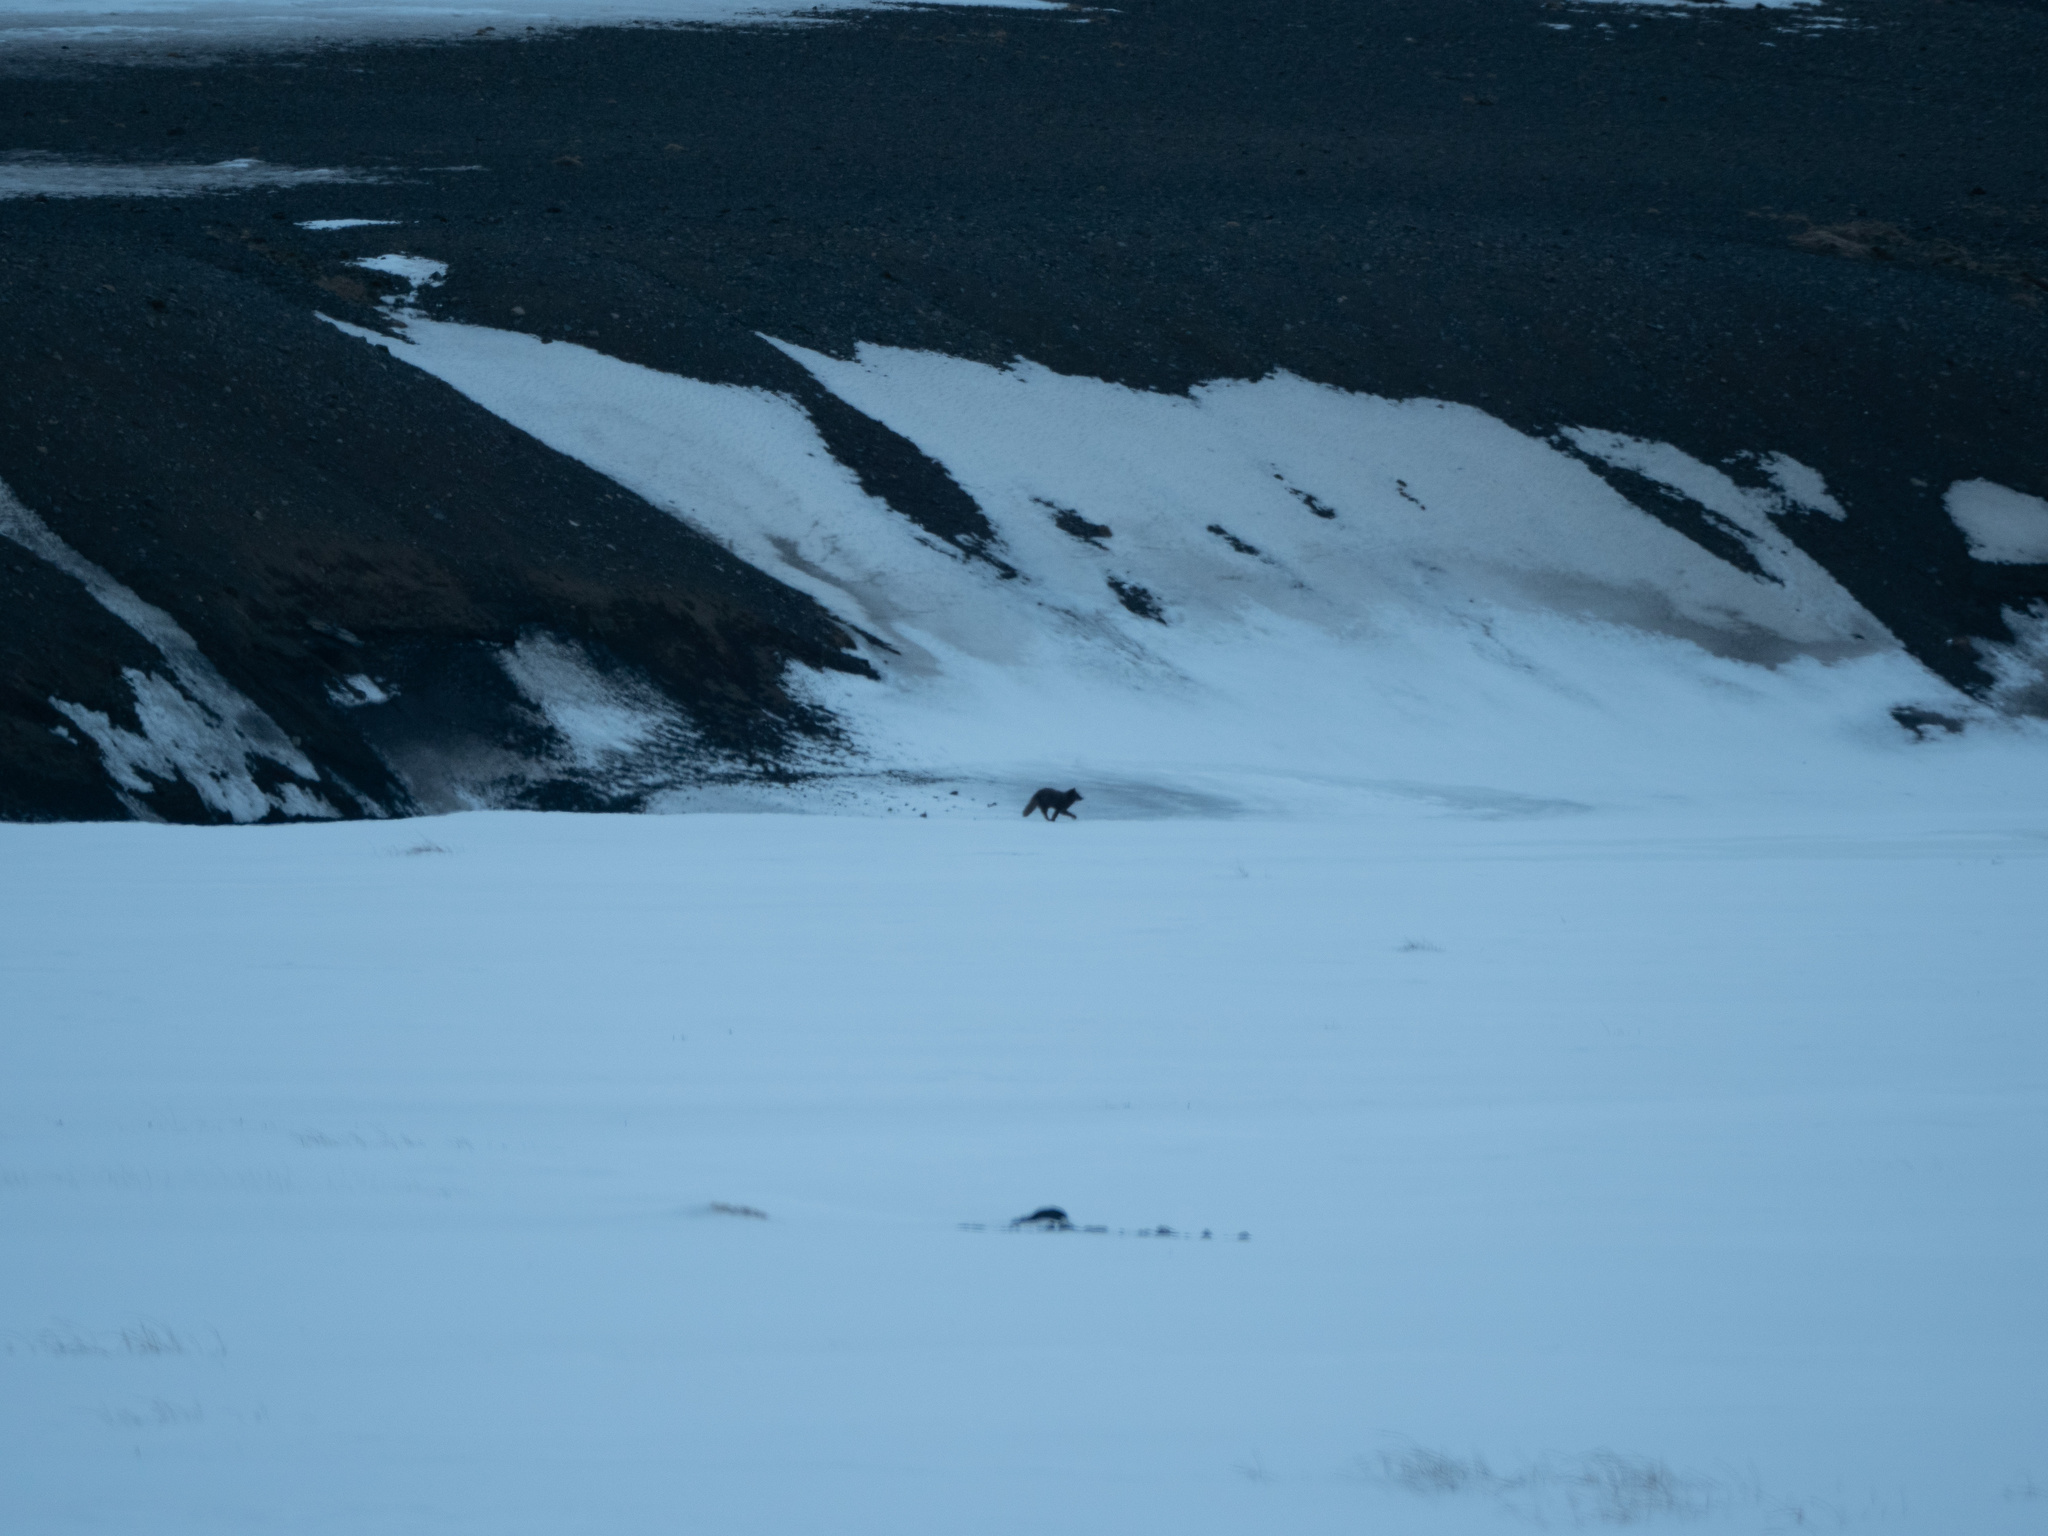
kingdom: Animalia
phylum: Chordata
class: Mammalia
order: Carnivora
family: Canidae
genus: Vulpes
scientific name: Vulpes lagopus
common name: Arctic fox
